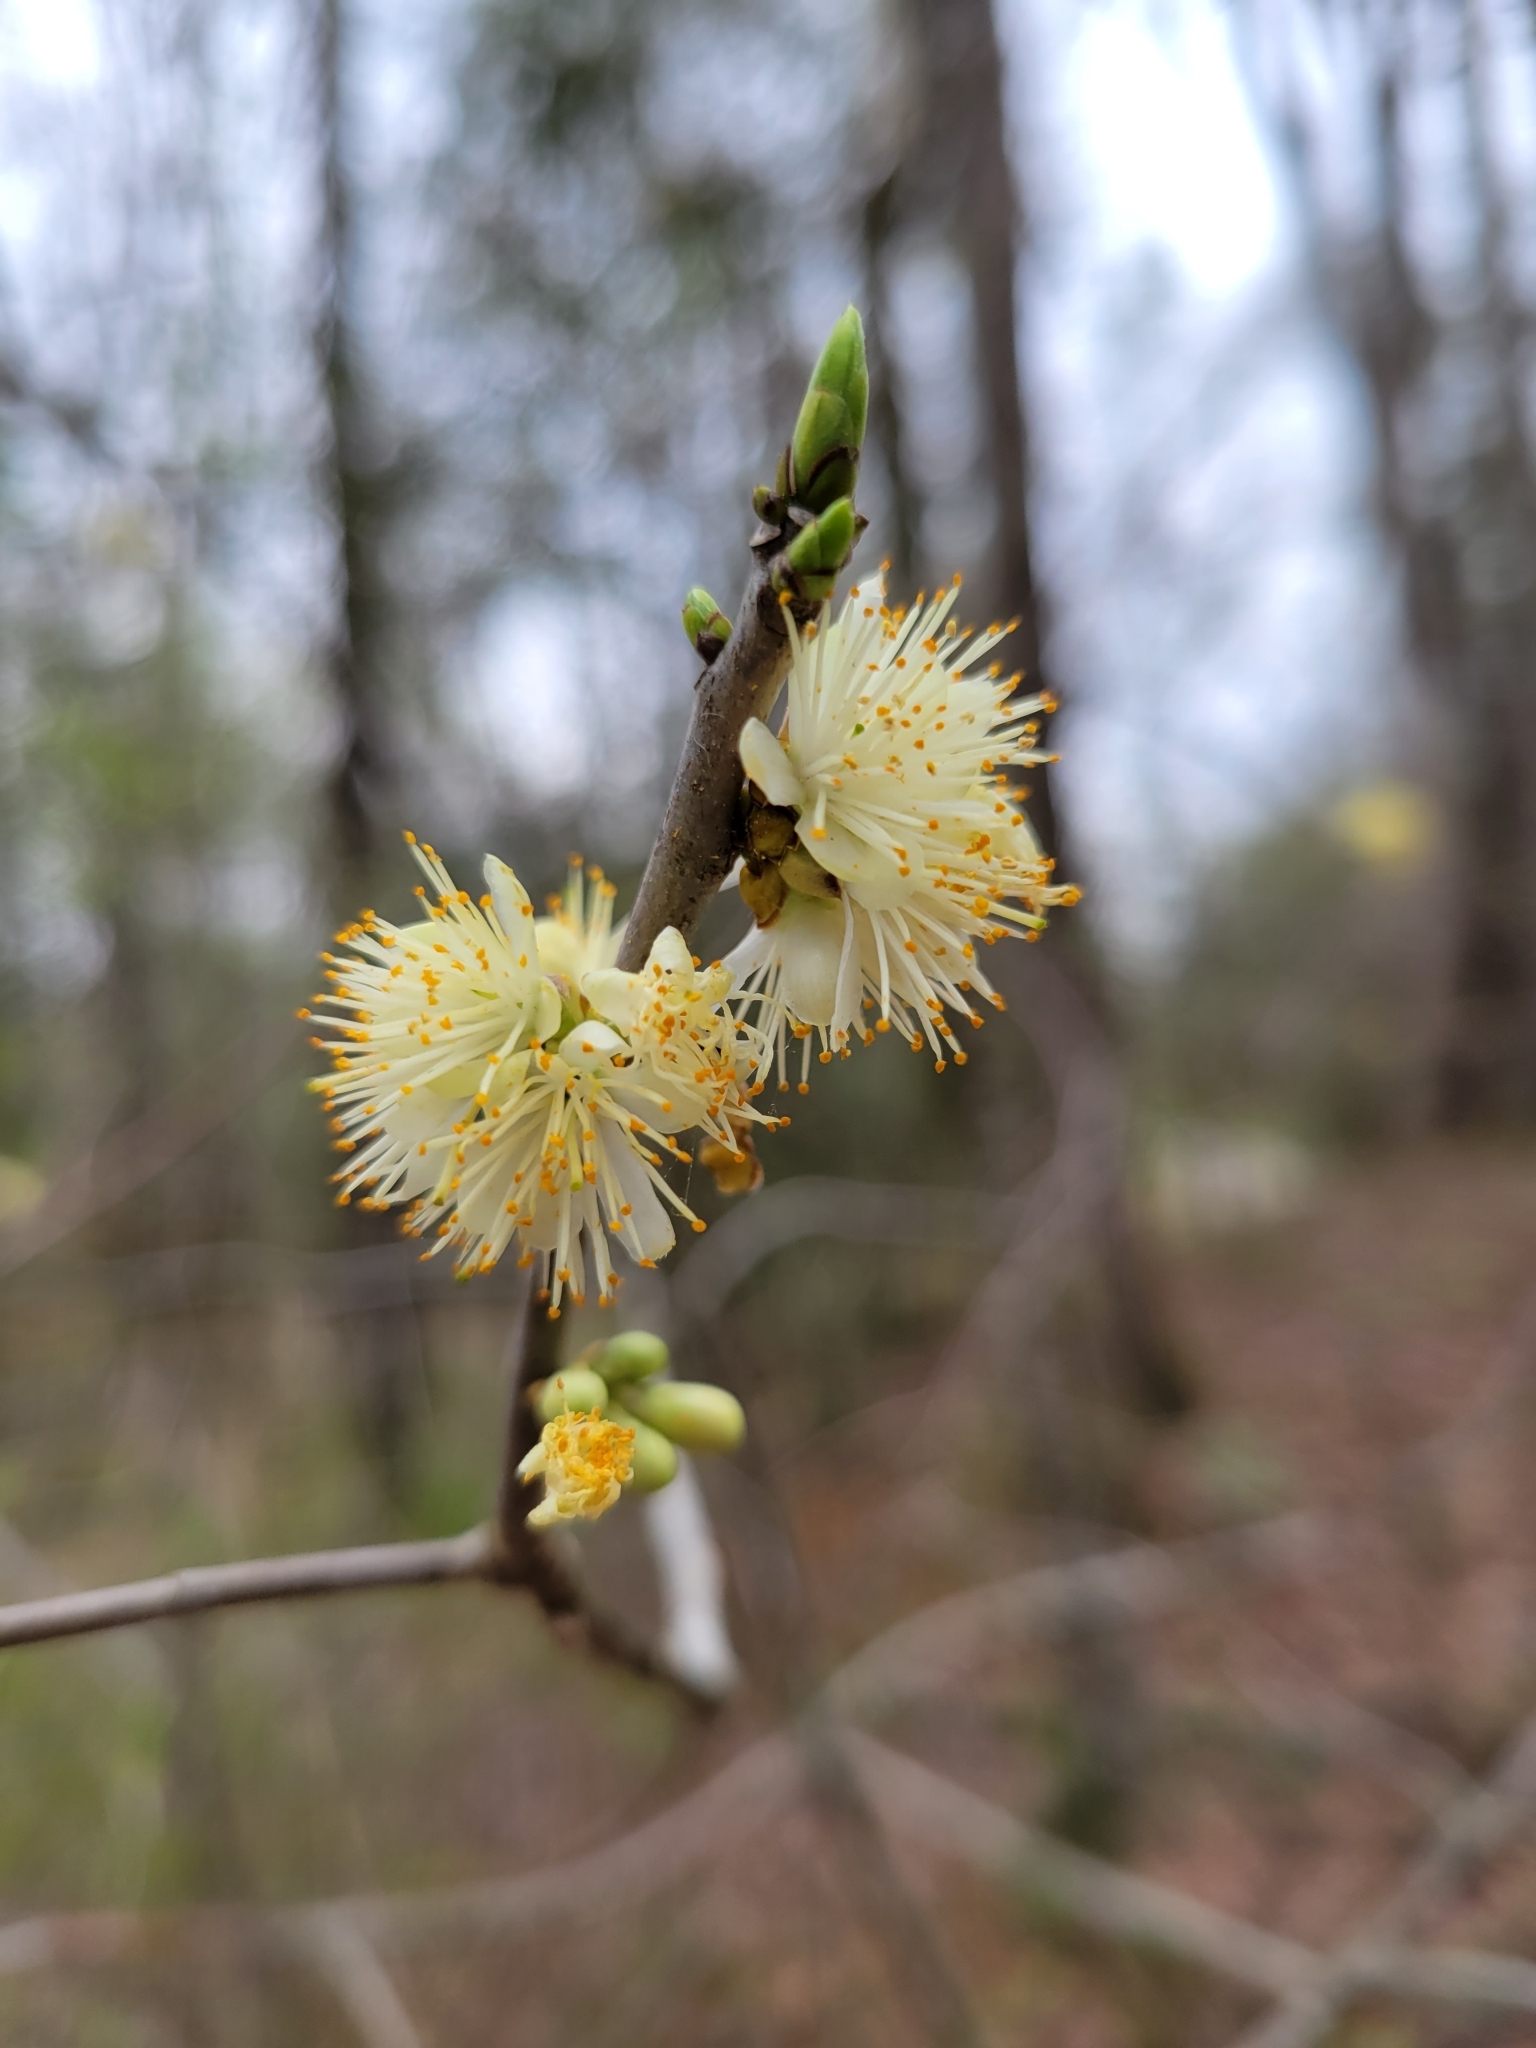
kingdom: Plantae
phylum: Tracheophyta
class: Magnoliopsida
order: Ericales
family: Symplocaceae
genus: Symplocos
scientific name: Symplocos tinctoria
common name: Horse-sugar
